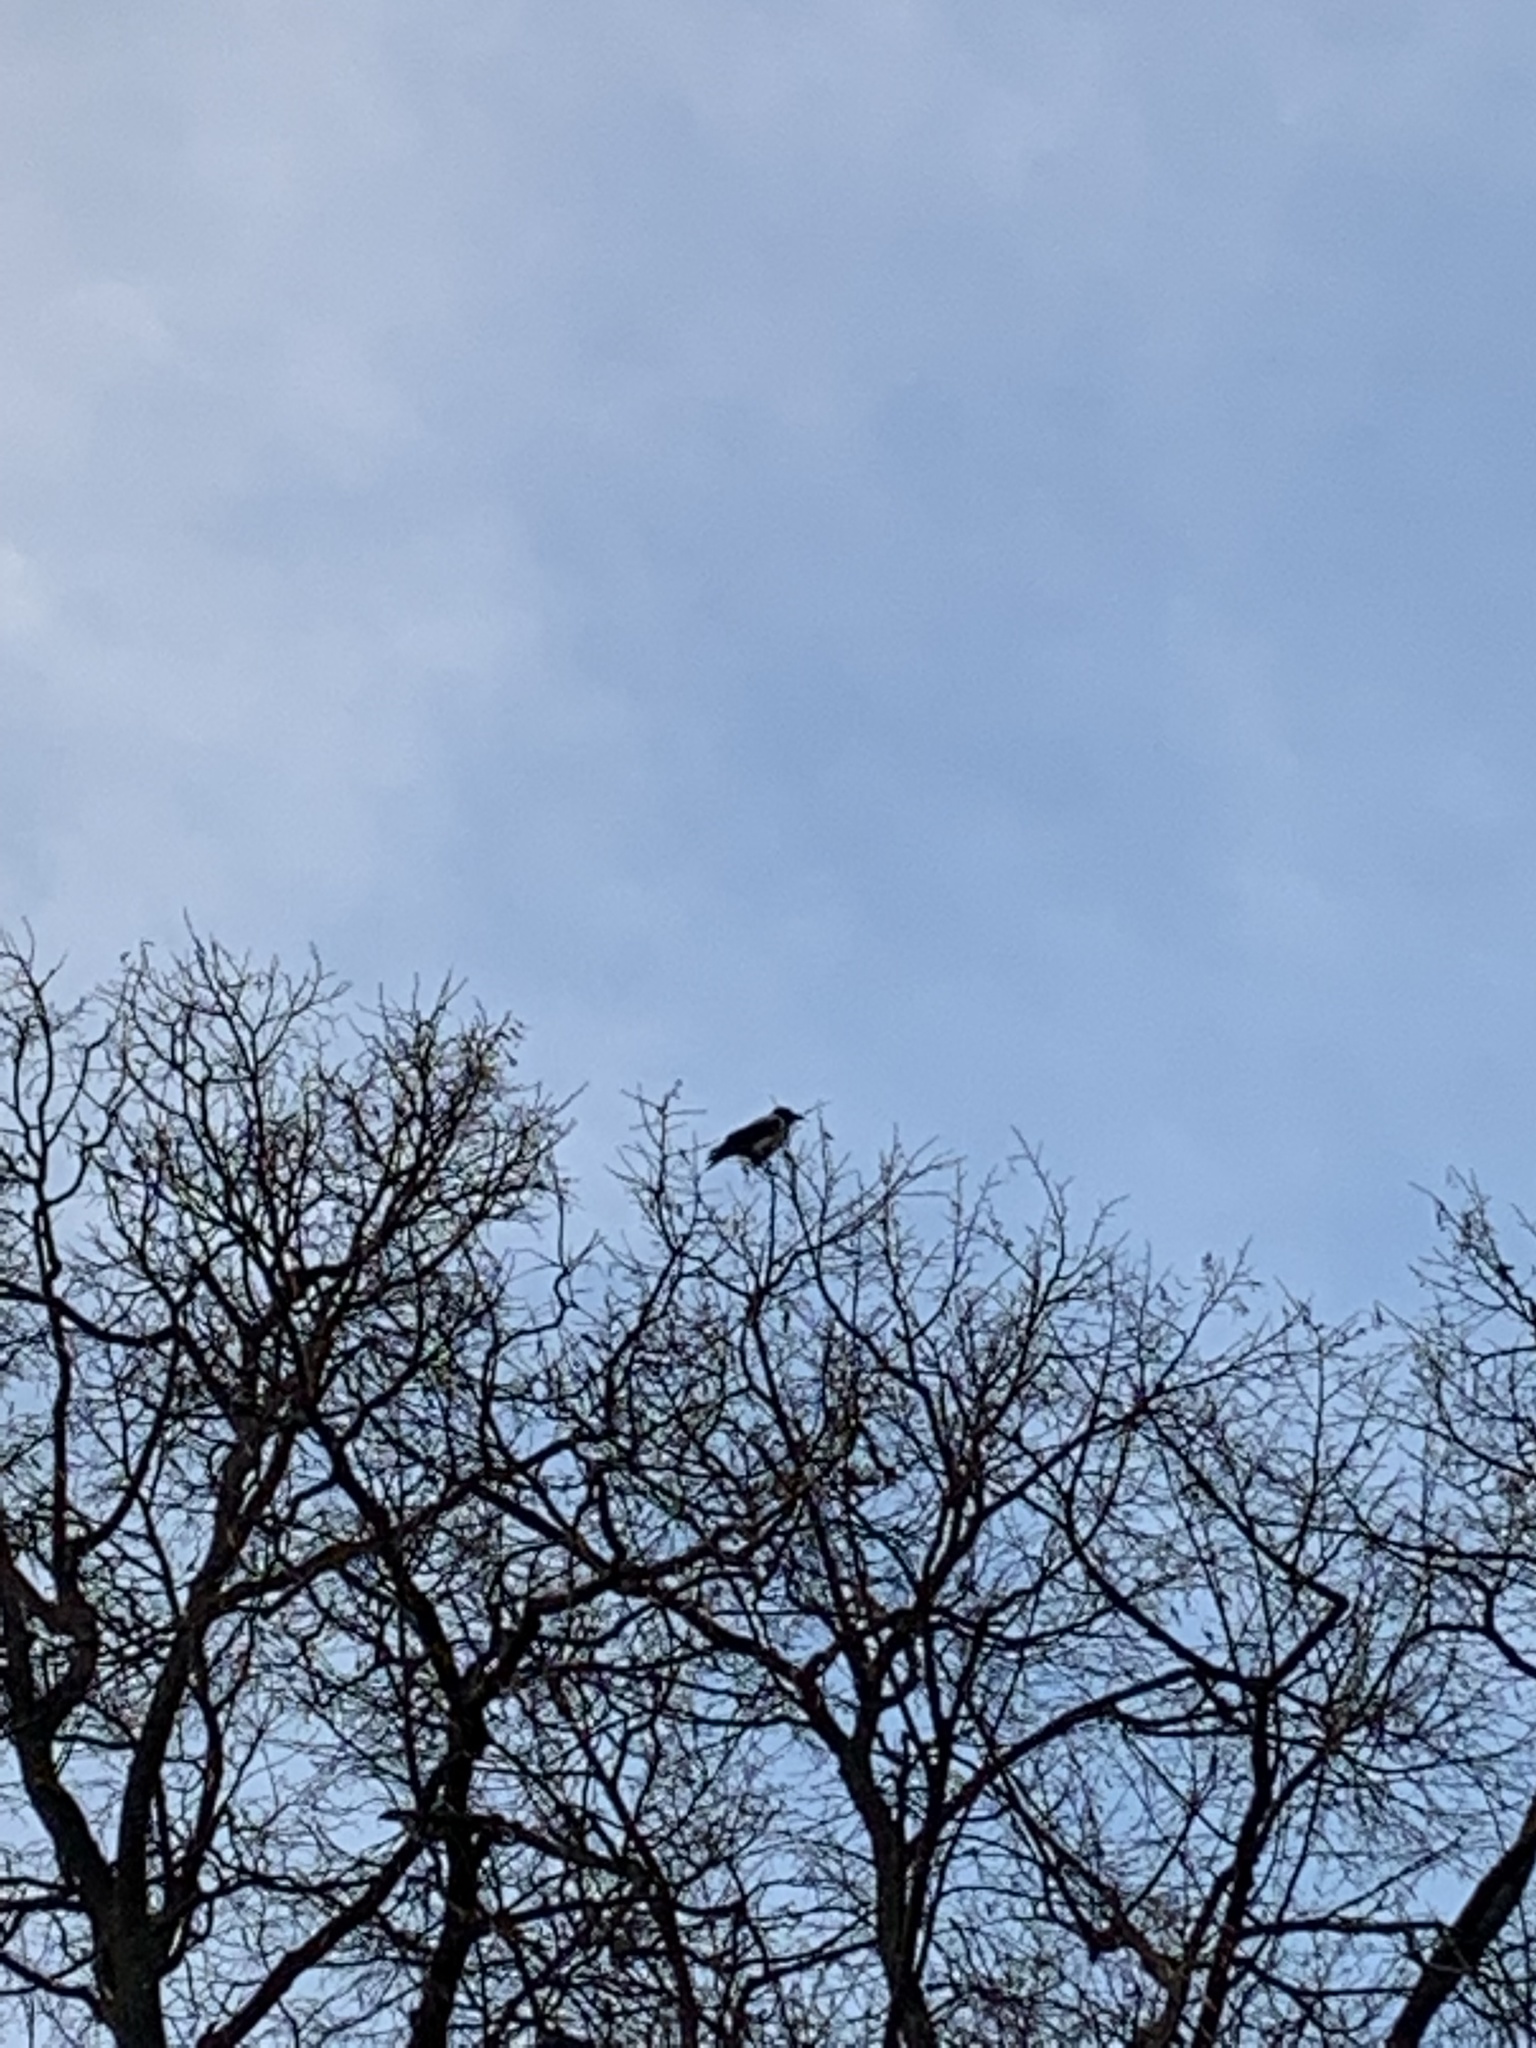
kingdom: Animalia
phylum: Chordata
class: Aves
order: Passeriformes
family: Corvidae
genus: Corvus
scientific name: Corvus cornix
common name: Hooded crow
